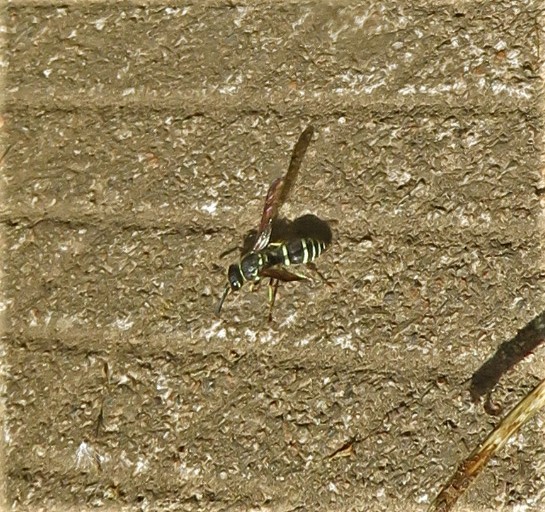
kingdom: Animalia
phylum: Arthropoda
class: Insecta
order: Hymenoptera
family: Vespidae
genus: Ancistrocerus
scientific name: Ancistrocerus
